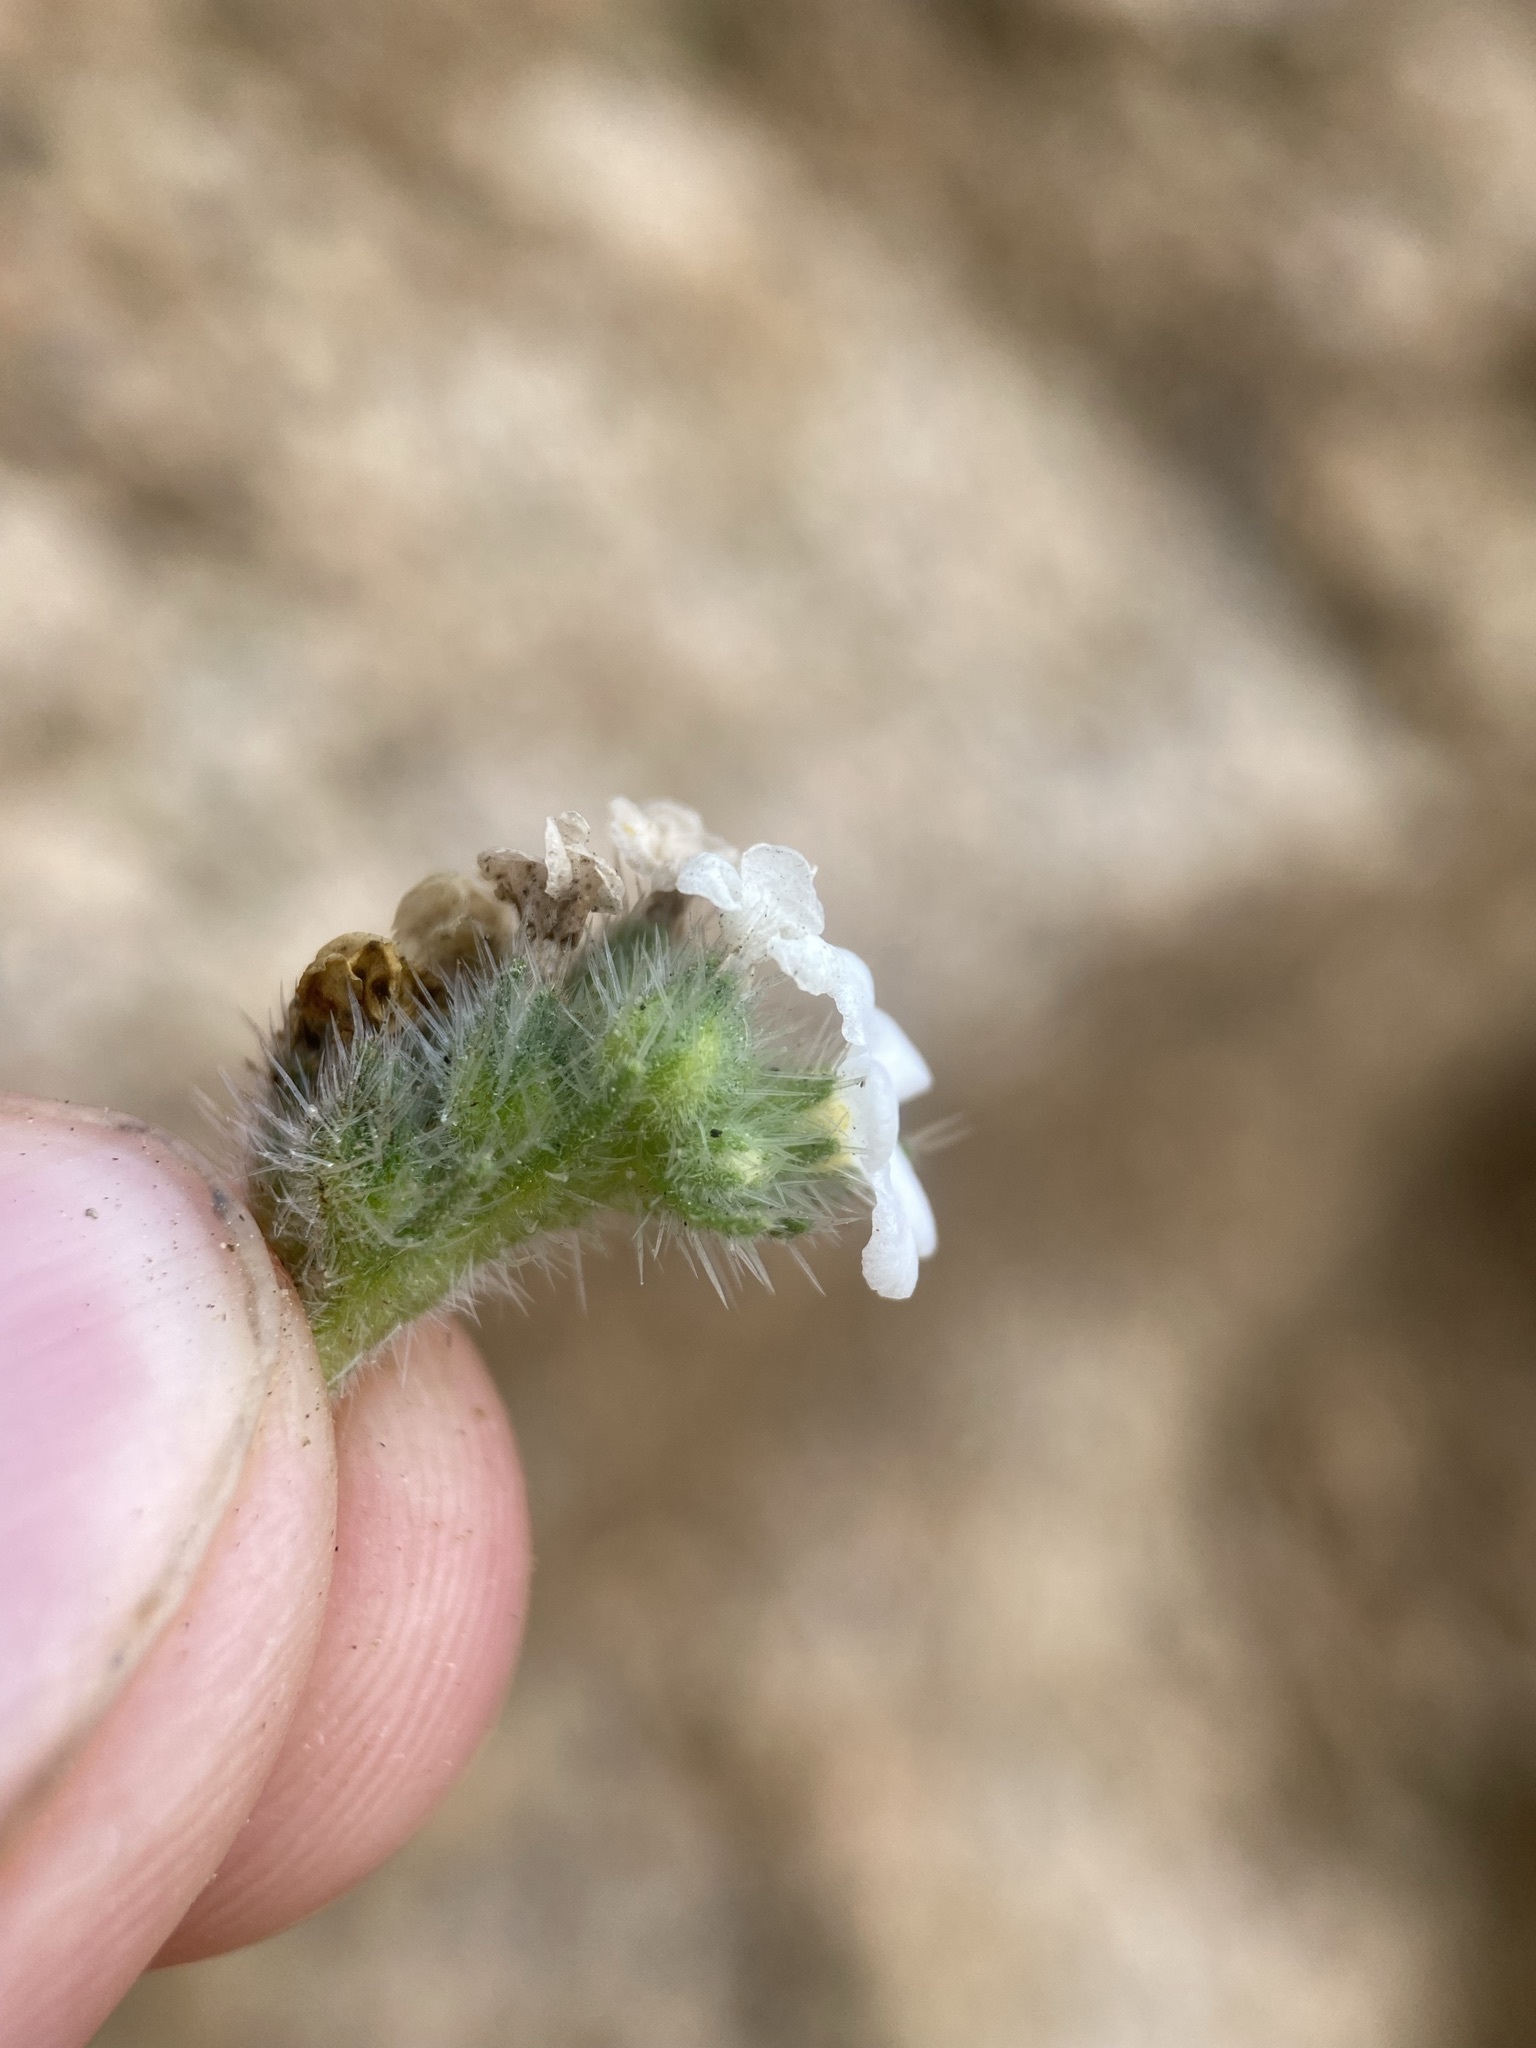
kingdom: Plantae
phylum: Tracheophyta
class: Magnoliopsida
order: Boraginales
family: Boraginaceae
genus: Oreocarya
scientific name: Oreocarya virgata
